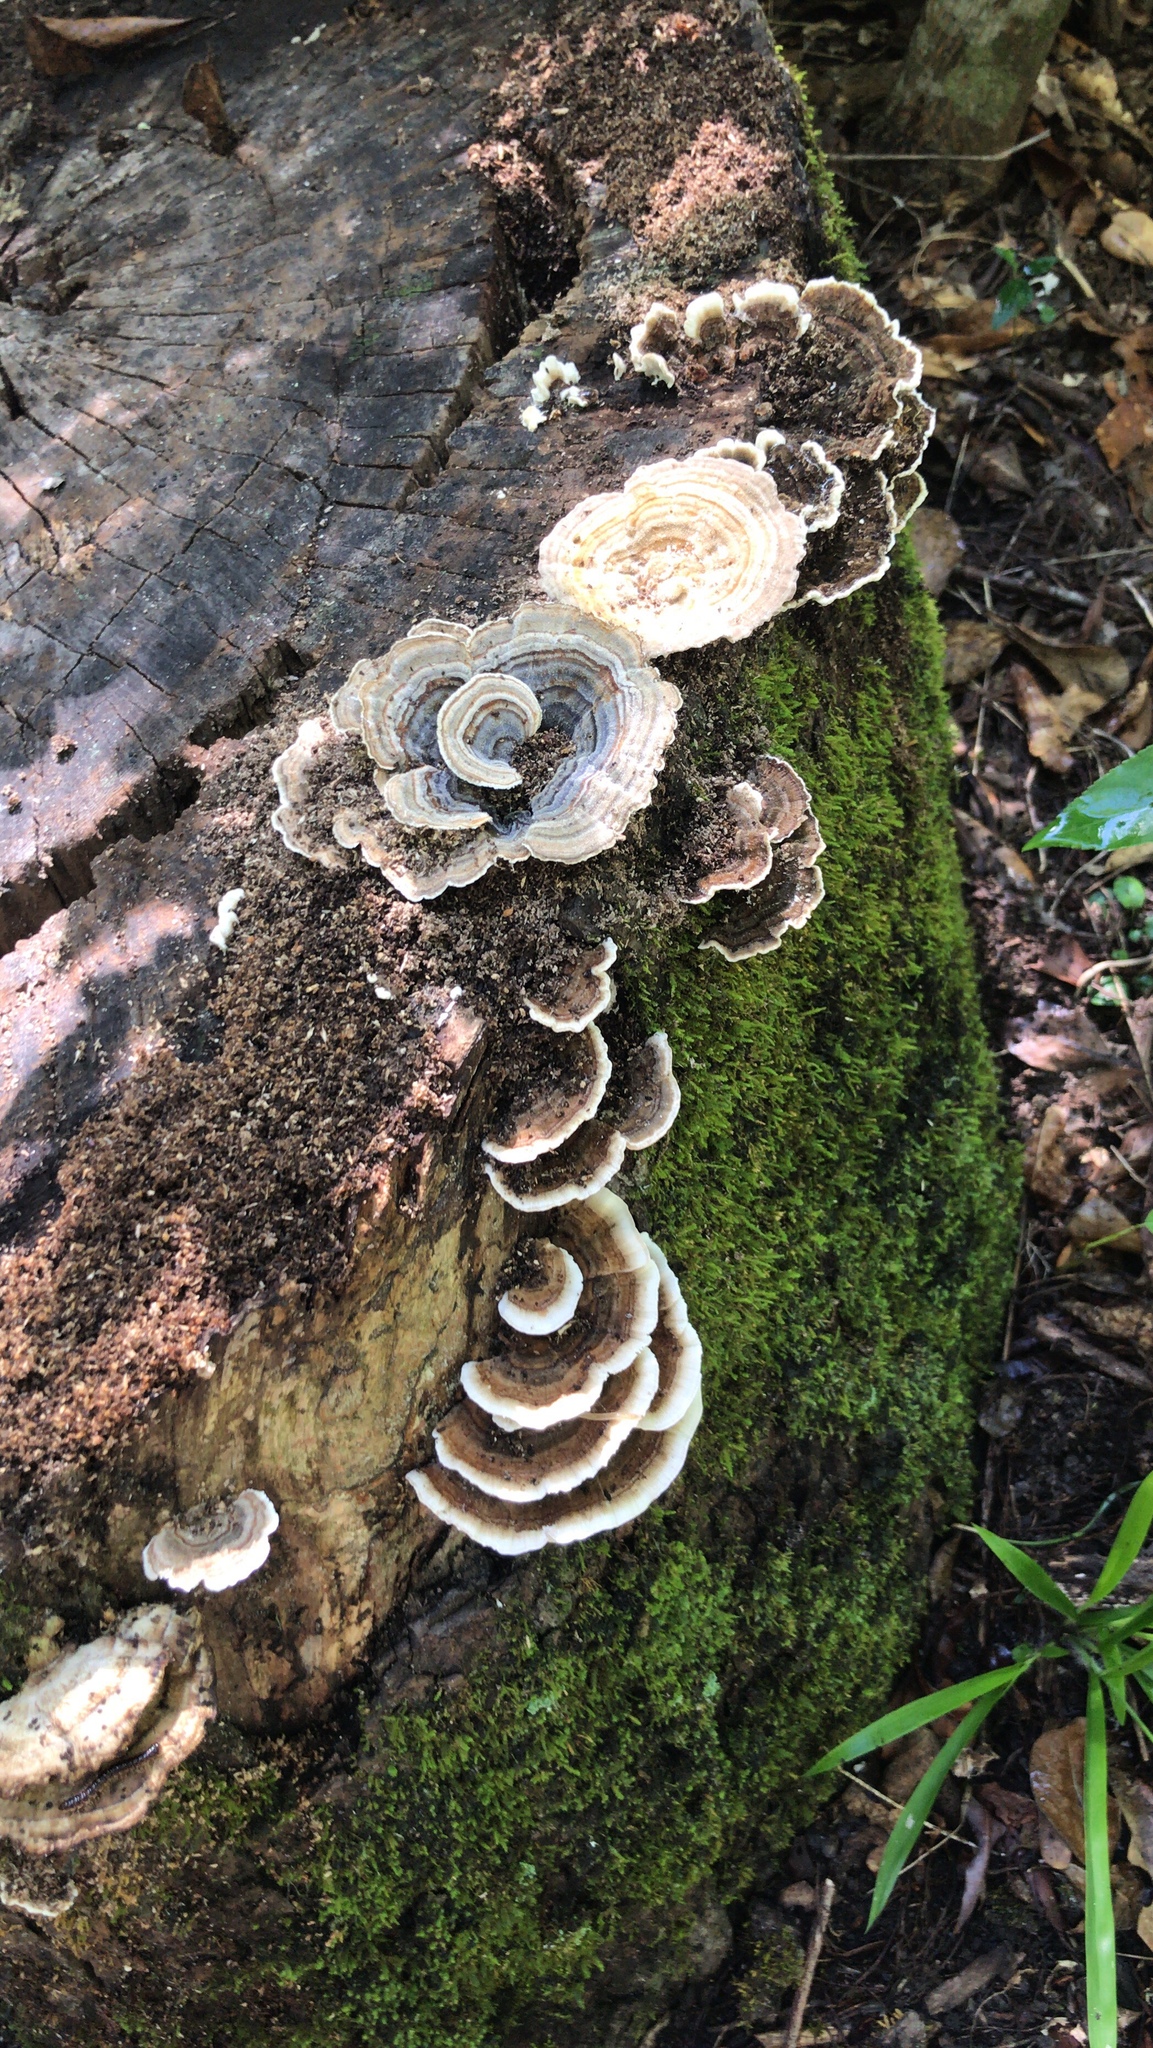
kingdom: Fungi
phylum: Basidiomycota
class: Agaricomycetes
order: Polyporales
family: Polyporaceae
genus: Trametes
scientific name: Trametes versicolor
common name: Turkeytail
